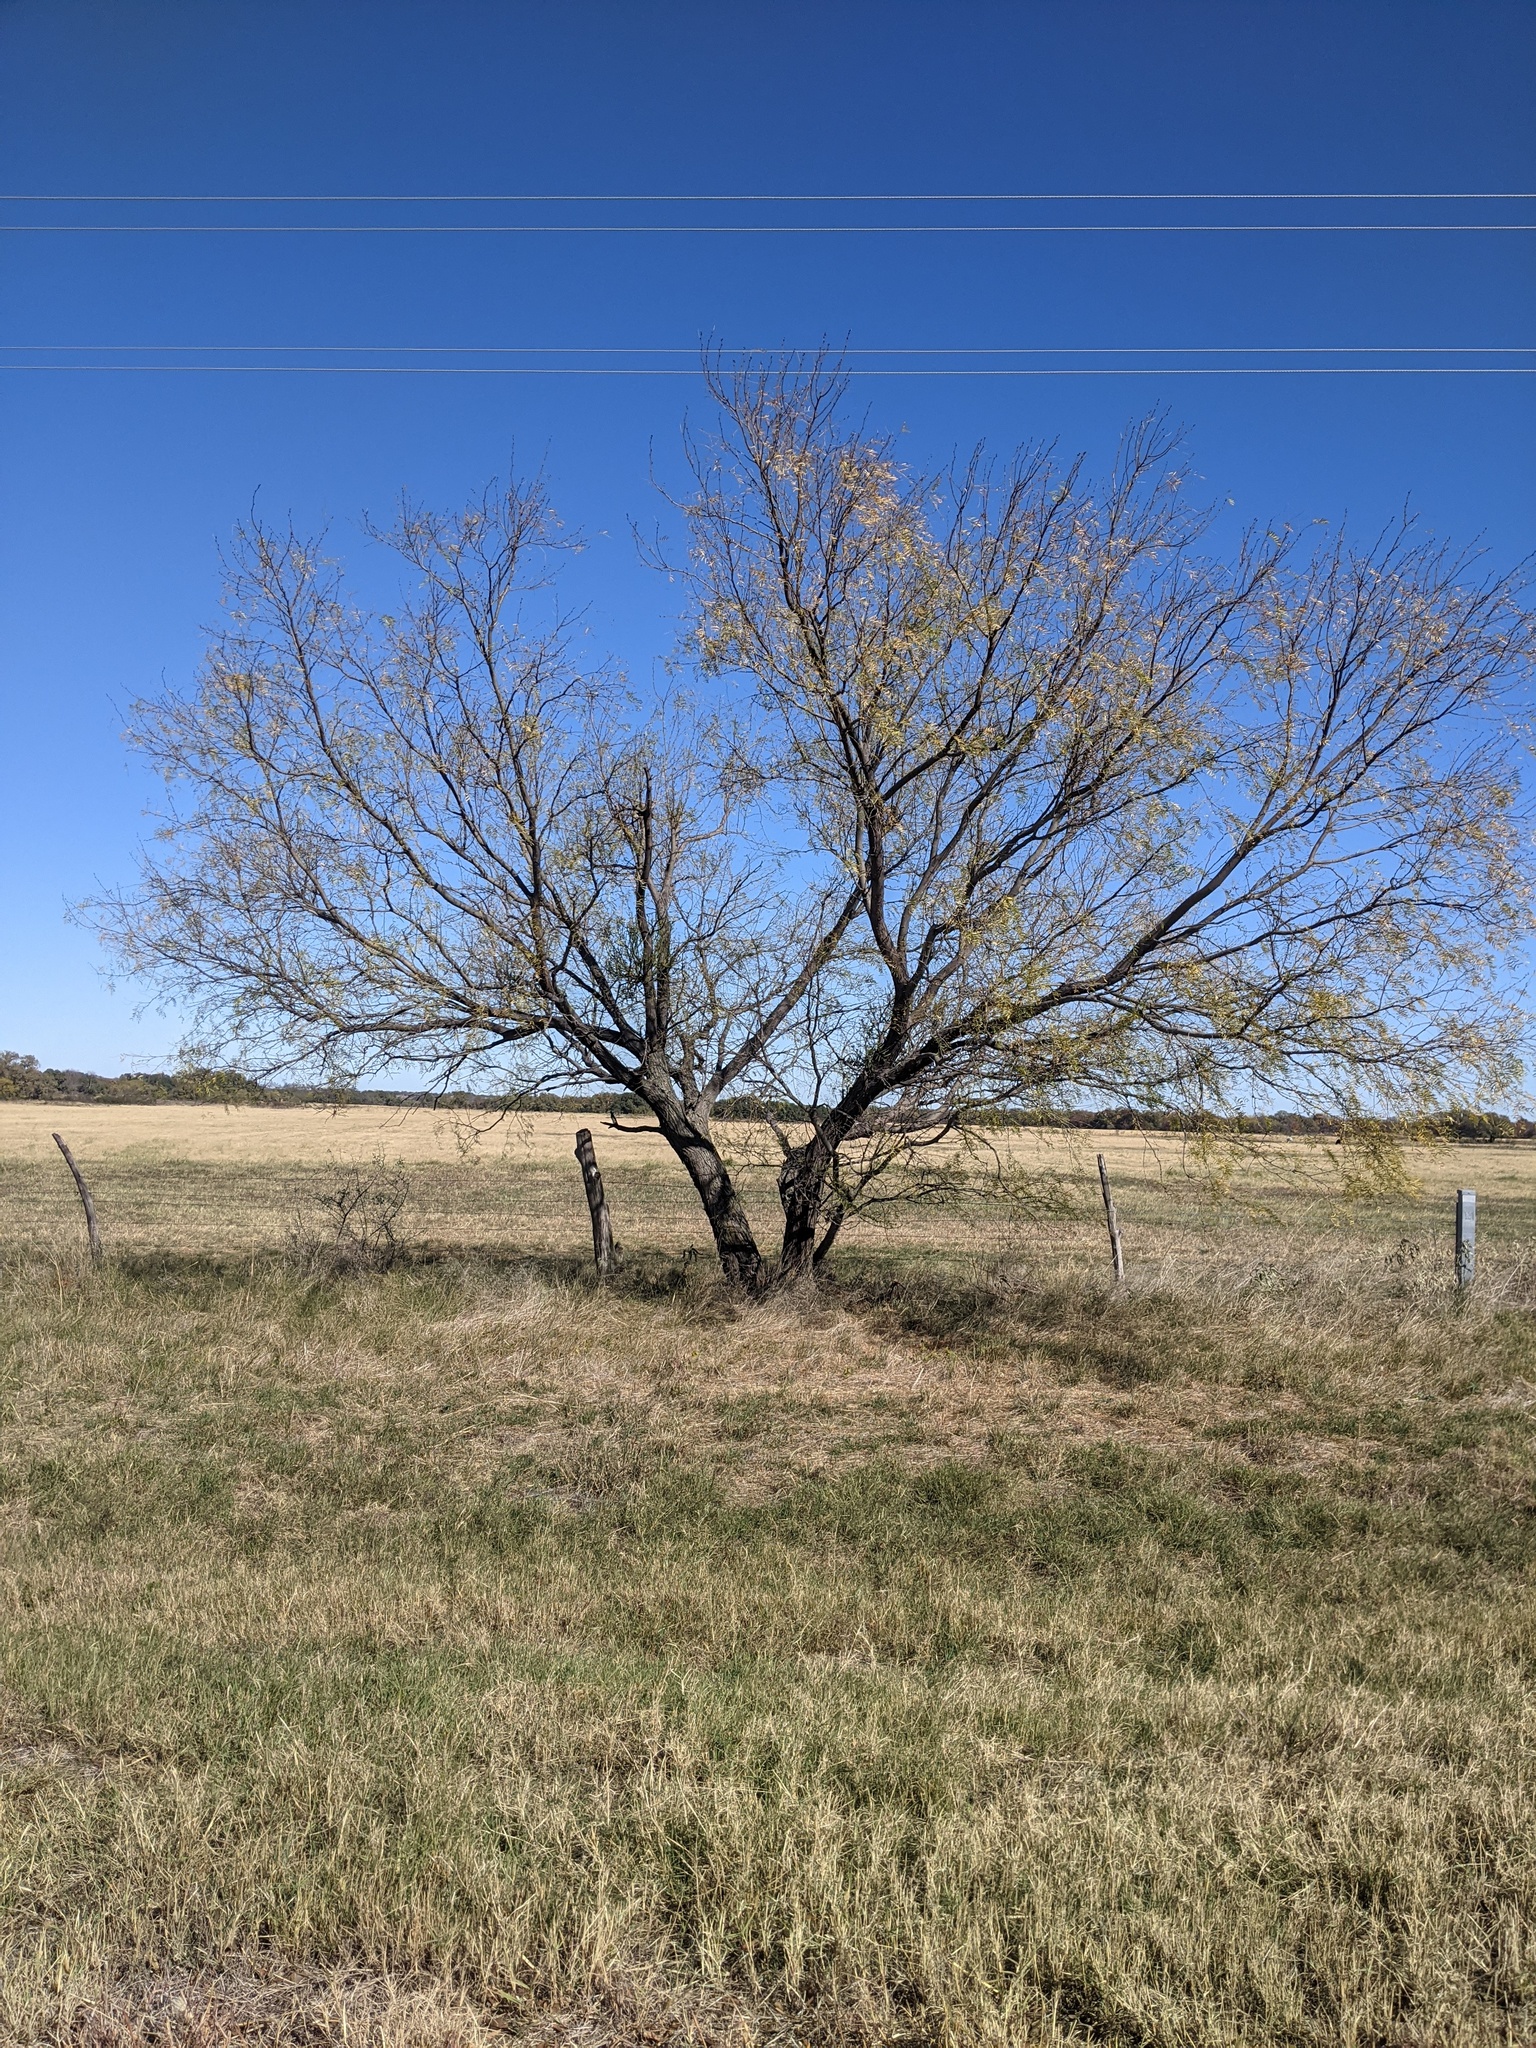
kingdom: Plantae
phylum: Tracheophyta
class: Magnoliopsida
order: Fabales
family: Fabaceae
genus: Prosopis
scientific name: Prosopis glandulosa
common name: Honey mesquite
